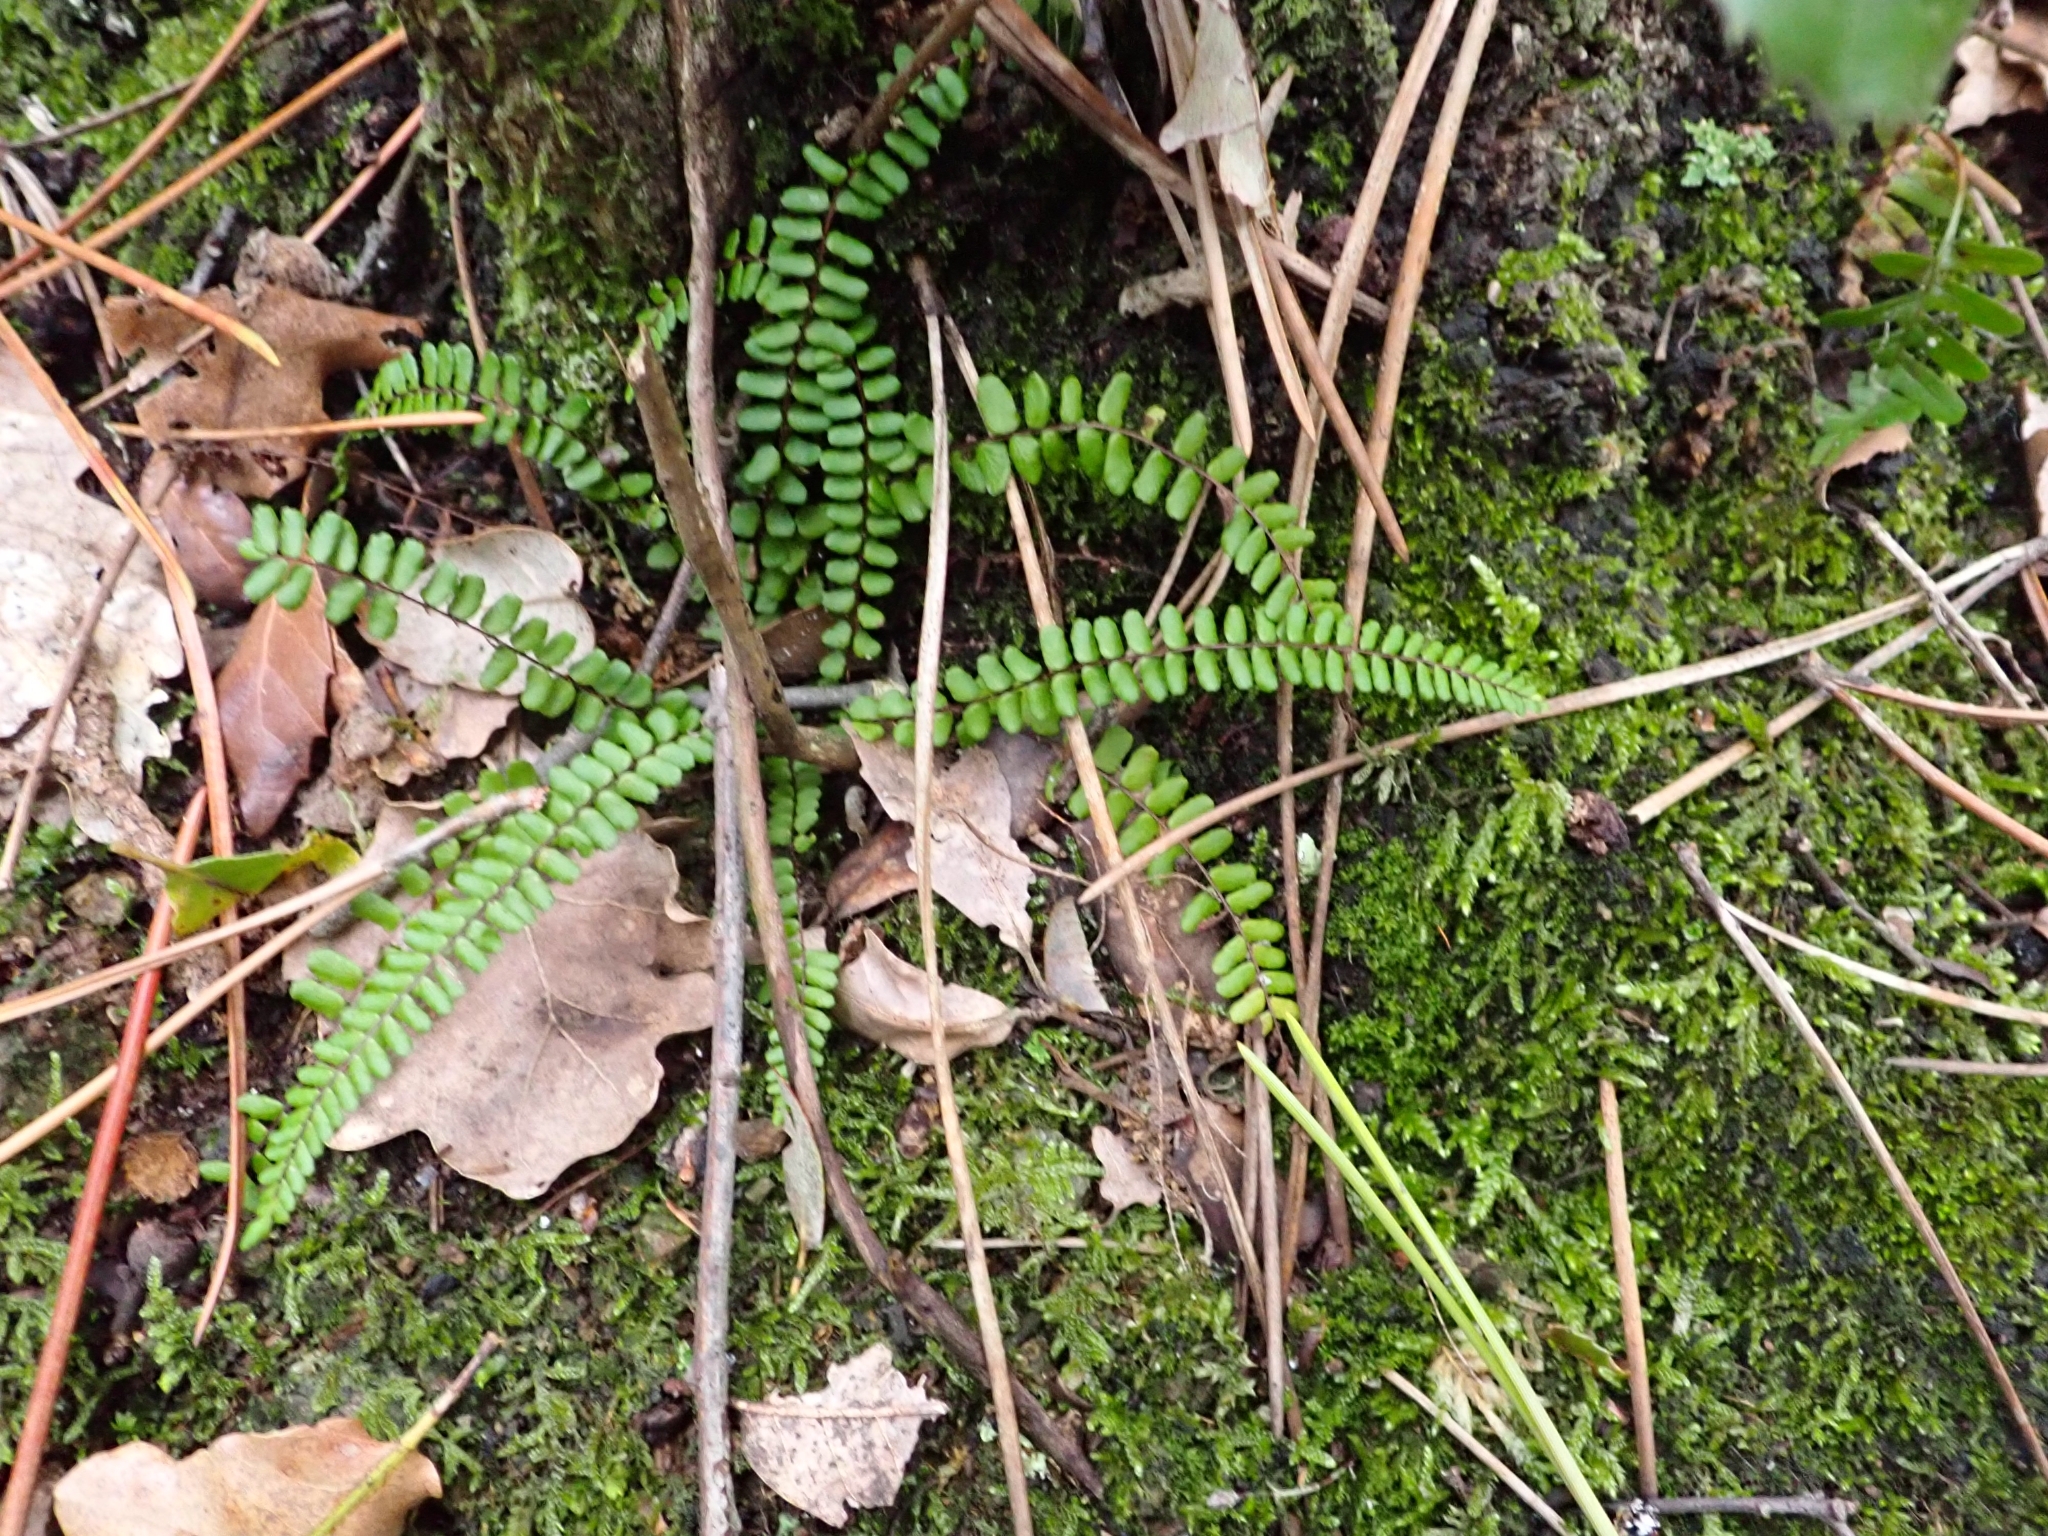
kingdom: Plantae
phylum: Tracheophyta
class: Polypodiopsida
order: Polypodiales
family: Aspleniaceae
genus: Asplenium
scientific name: Asplenium trichomanes
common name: Maidenhair spleenwort
